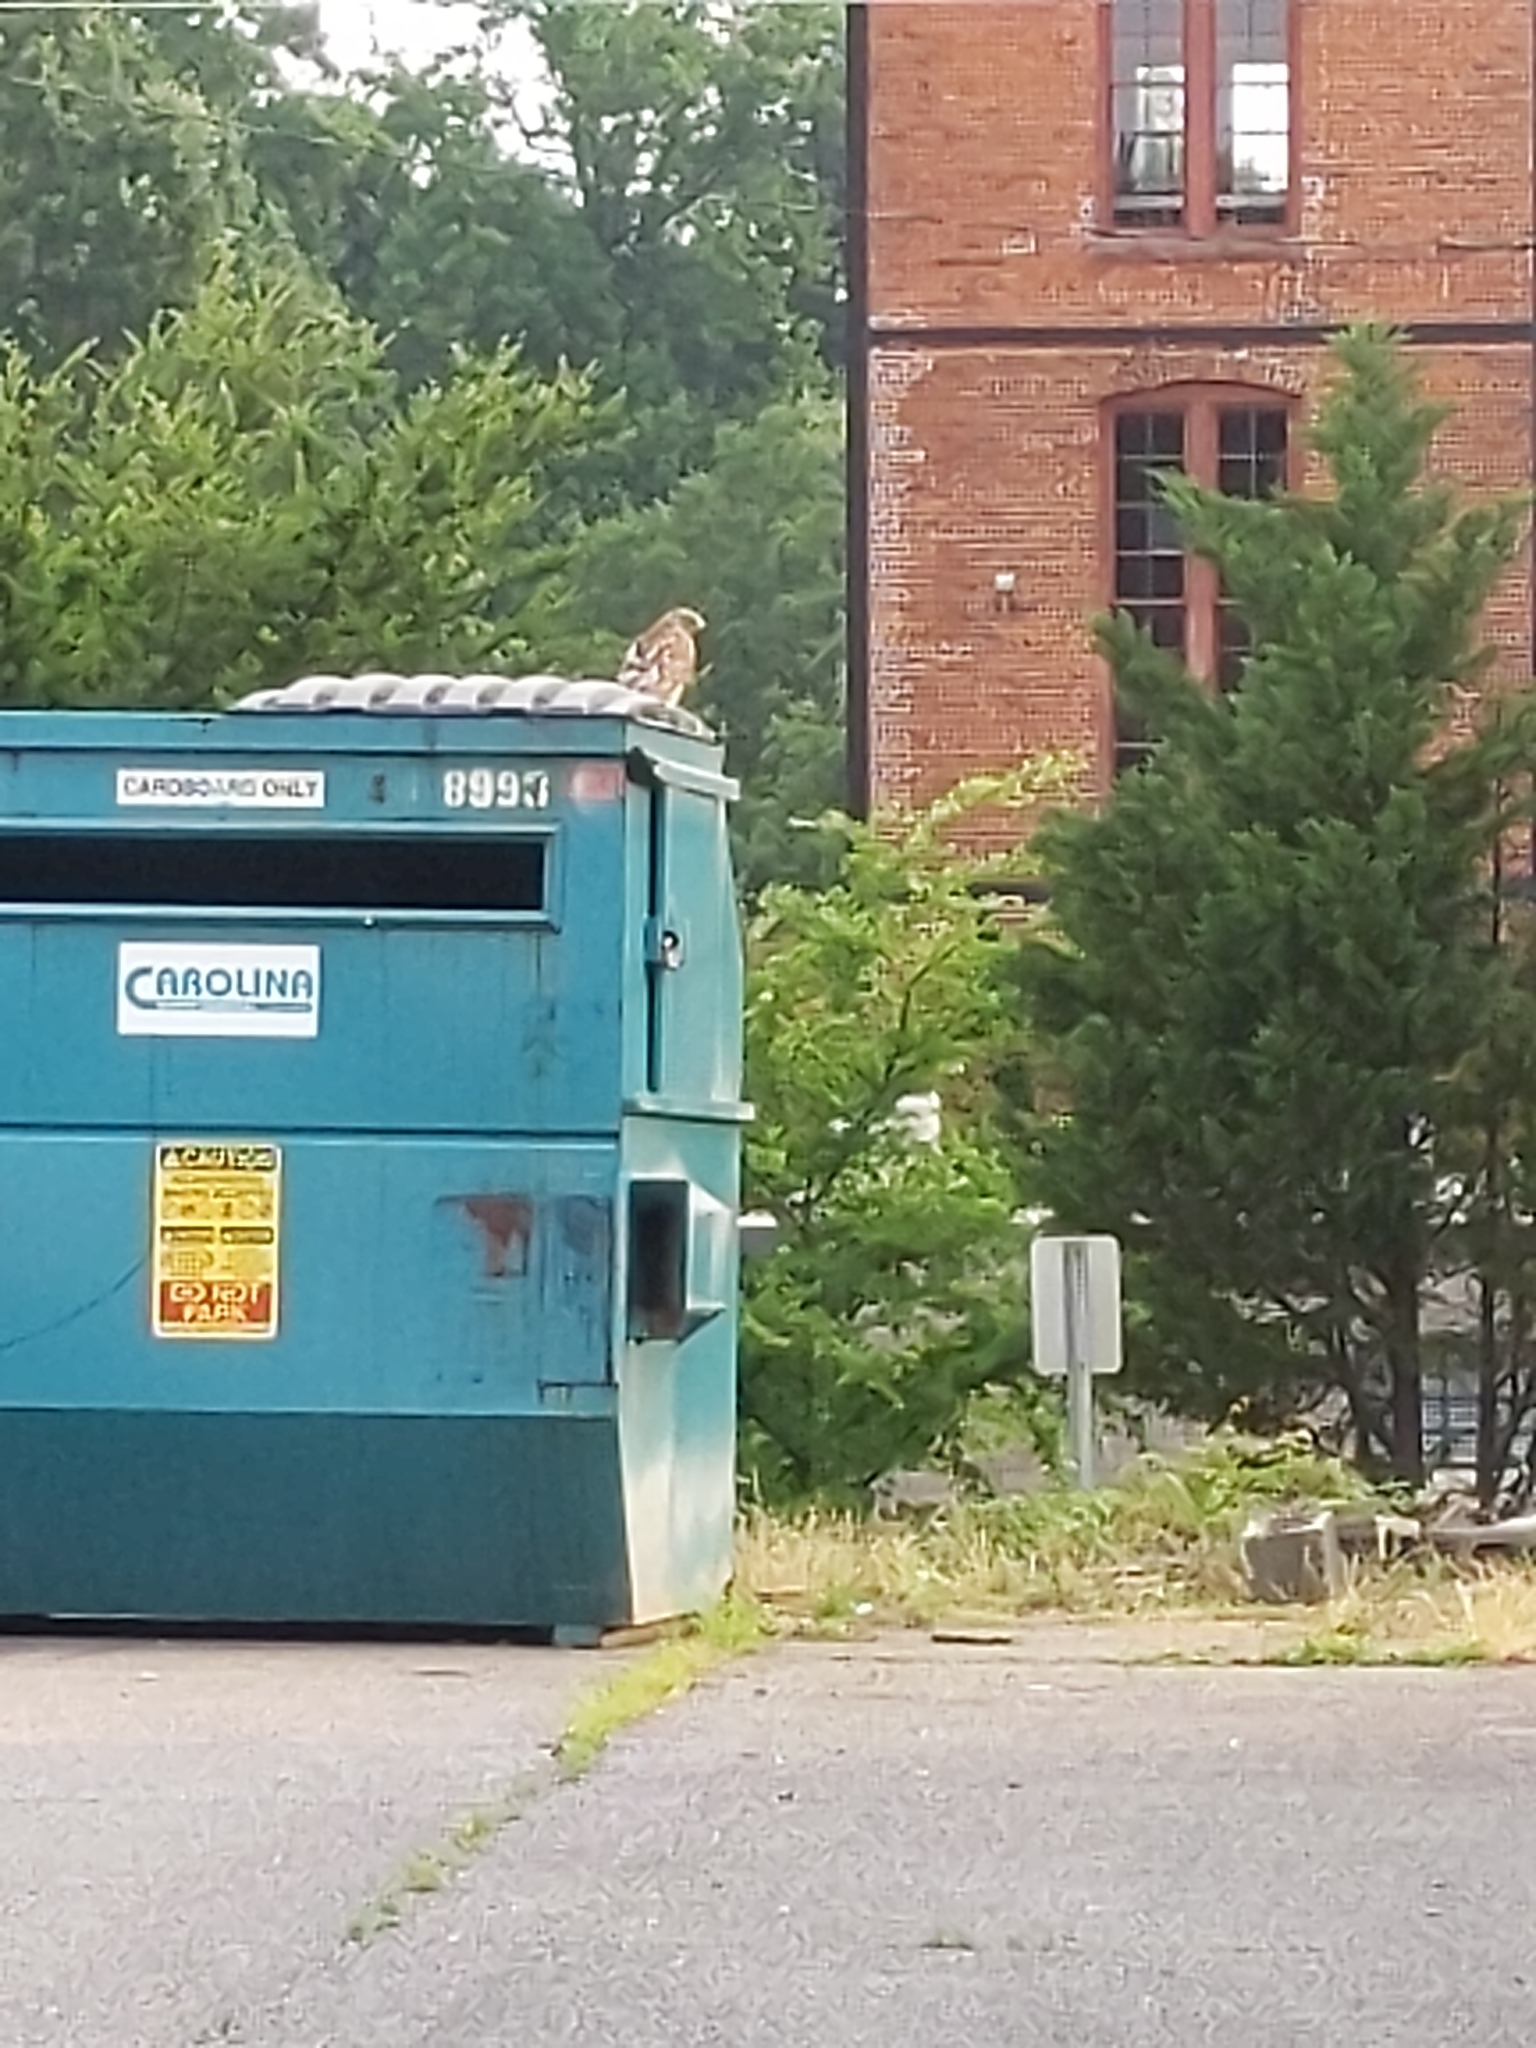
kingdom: Animalia
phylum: Chordata
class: Aves
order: Accipitriformes
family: Accipitridae
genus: Buteo
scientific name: Buteo lineatus
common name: Red-shouldered hawk
